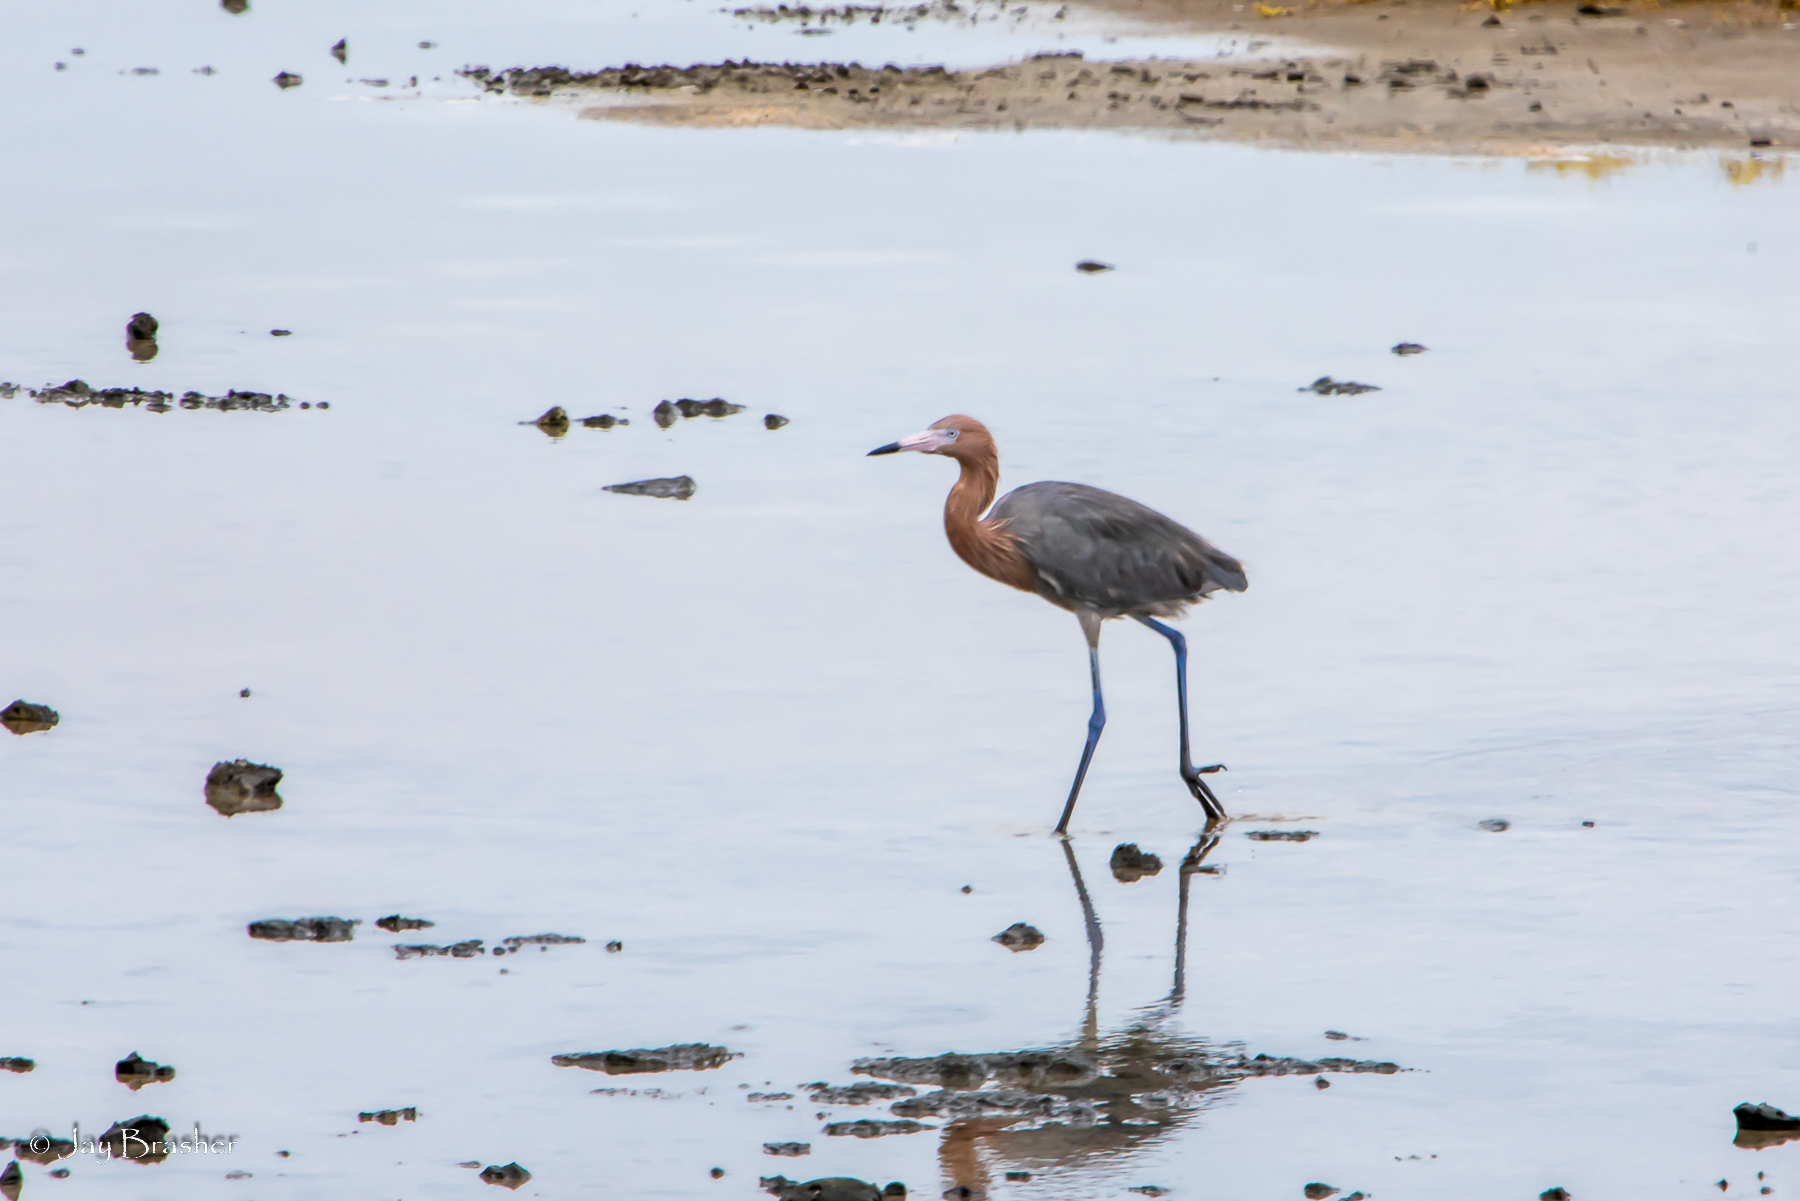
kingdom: Animalia
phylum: Chordata
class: Aves
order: Pelecaniformes
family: Ardeidae
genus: Egretta
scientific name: Egretta rufescens
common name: Reddish egret
